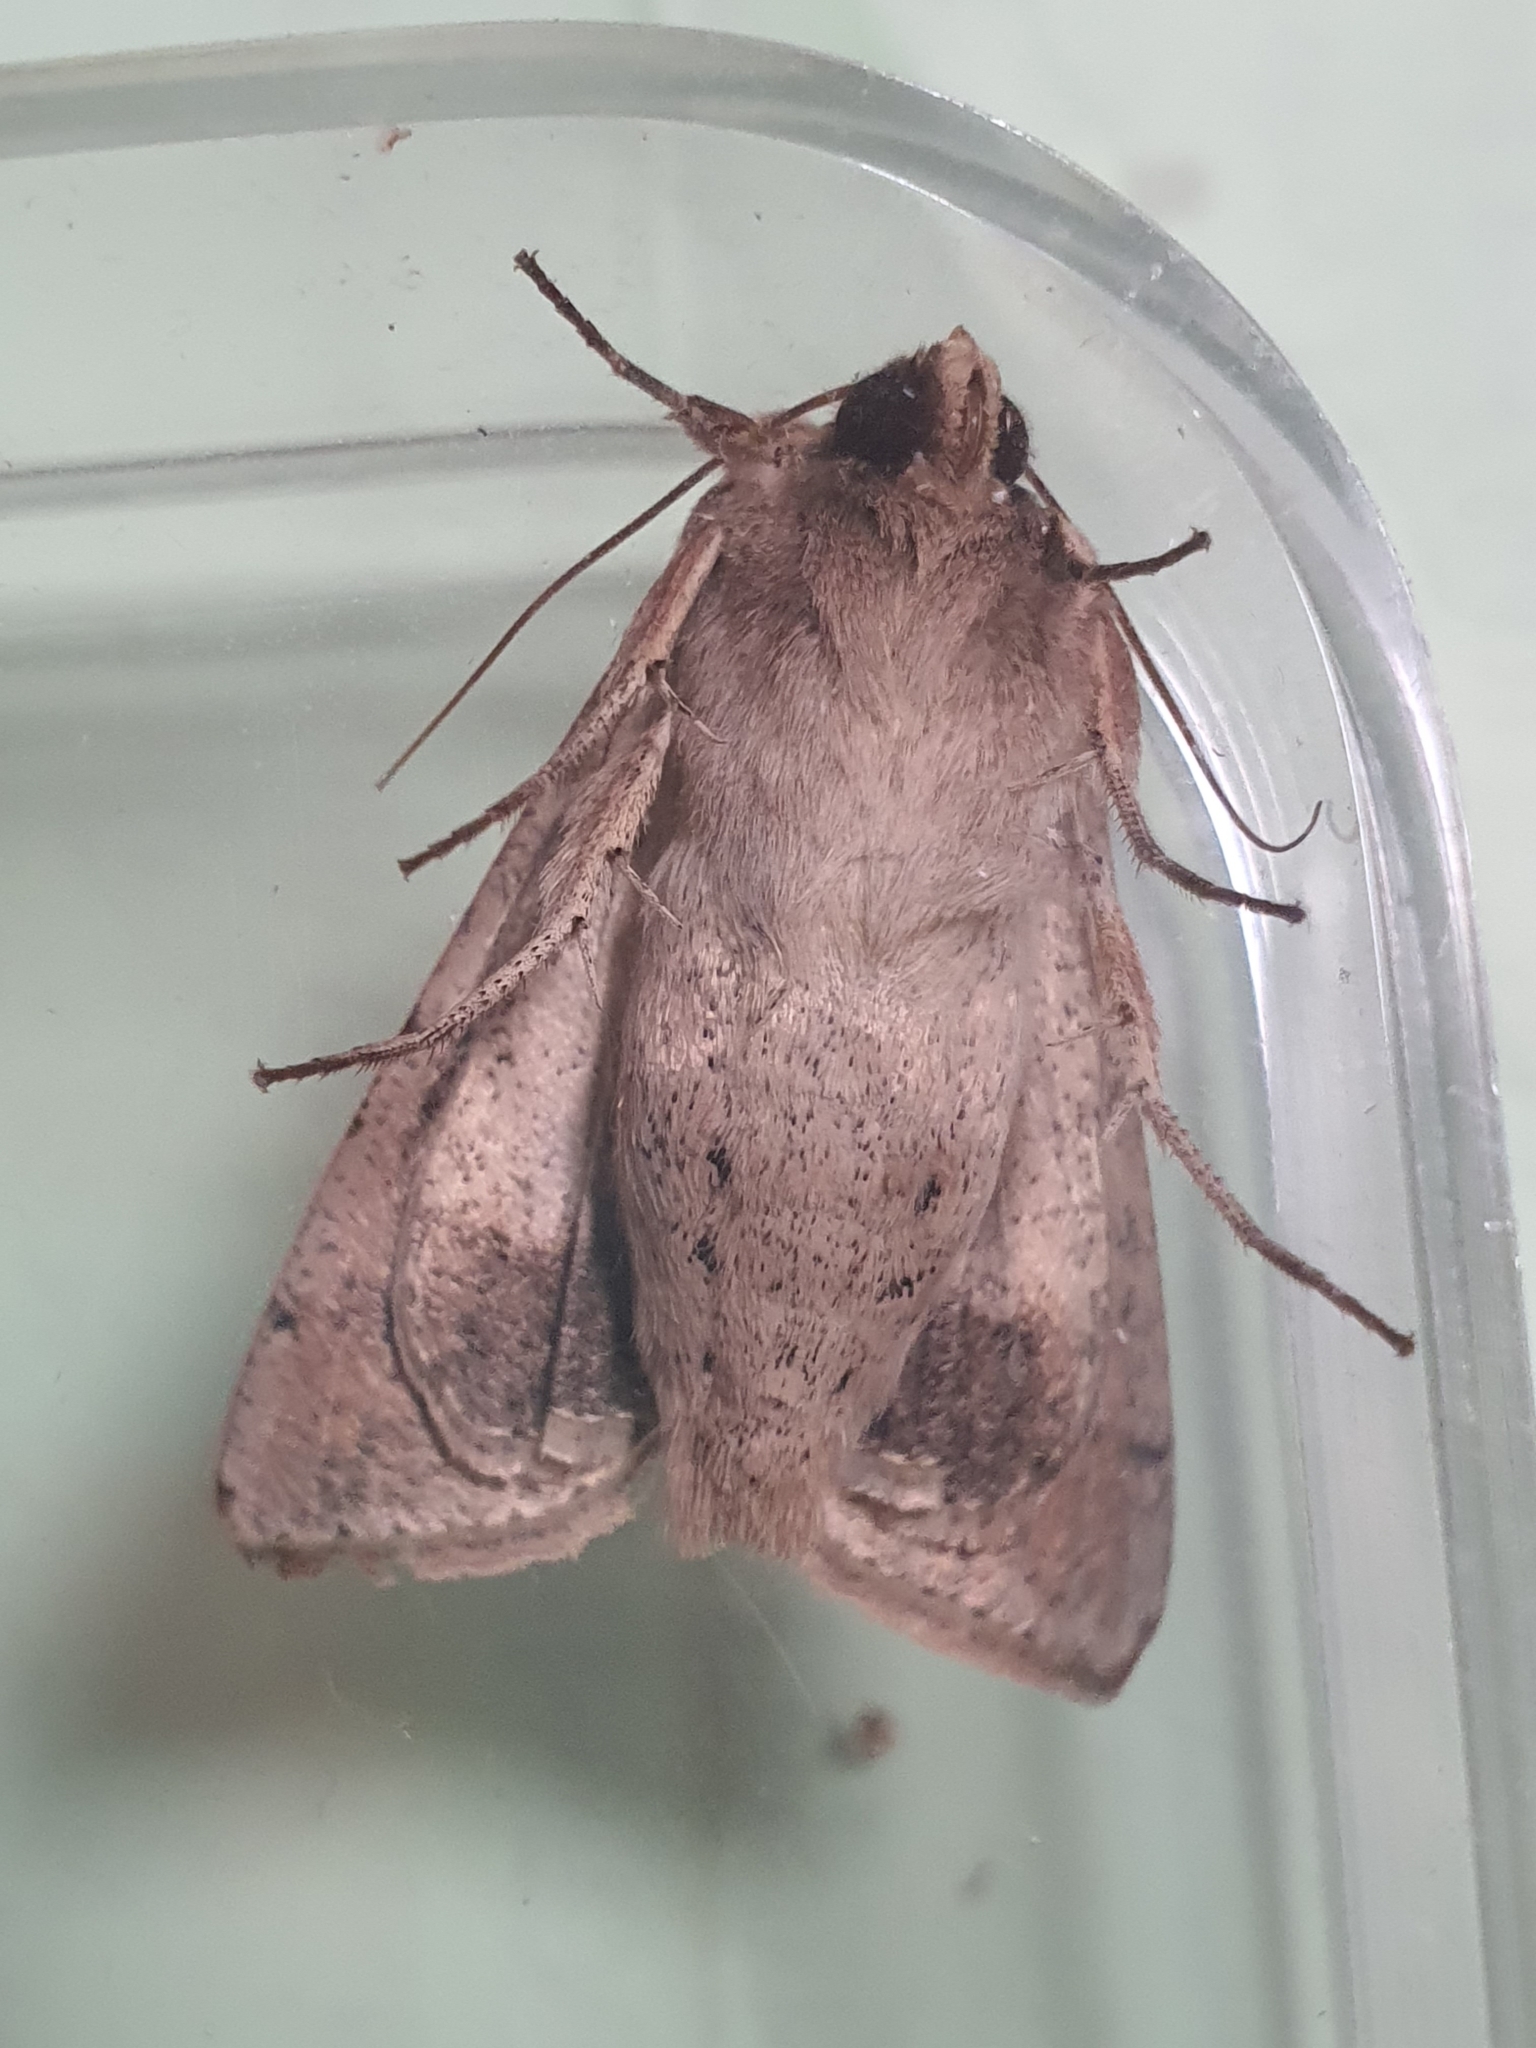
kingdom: Animalia
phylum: Arthropoda
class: Insecta
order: Lepidoptera
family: Noctuidae
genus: Mythimna
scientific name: Mythimna convecta
